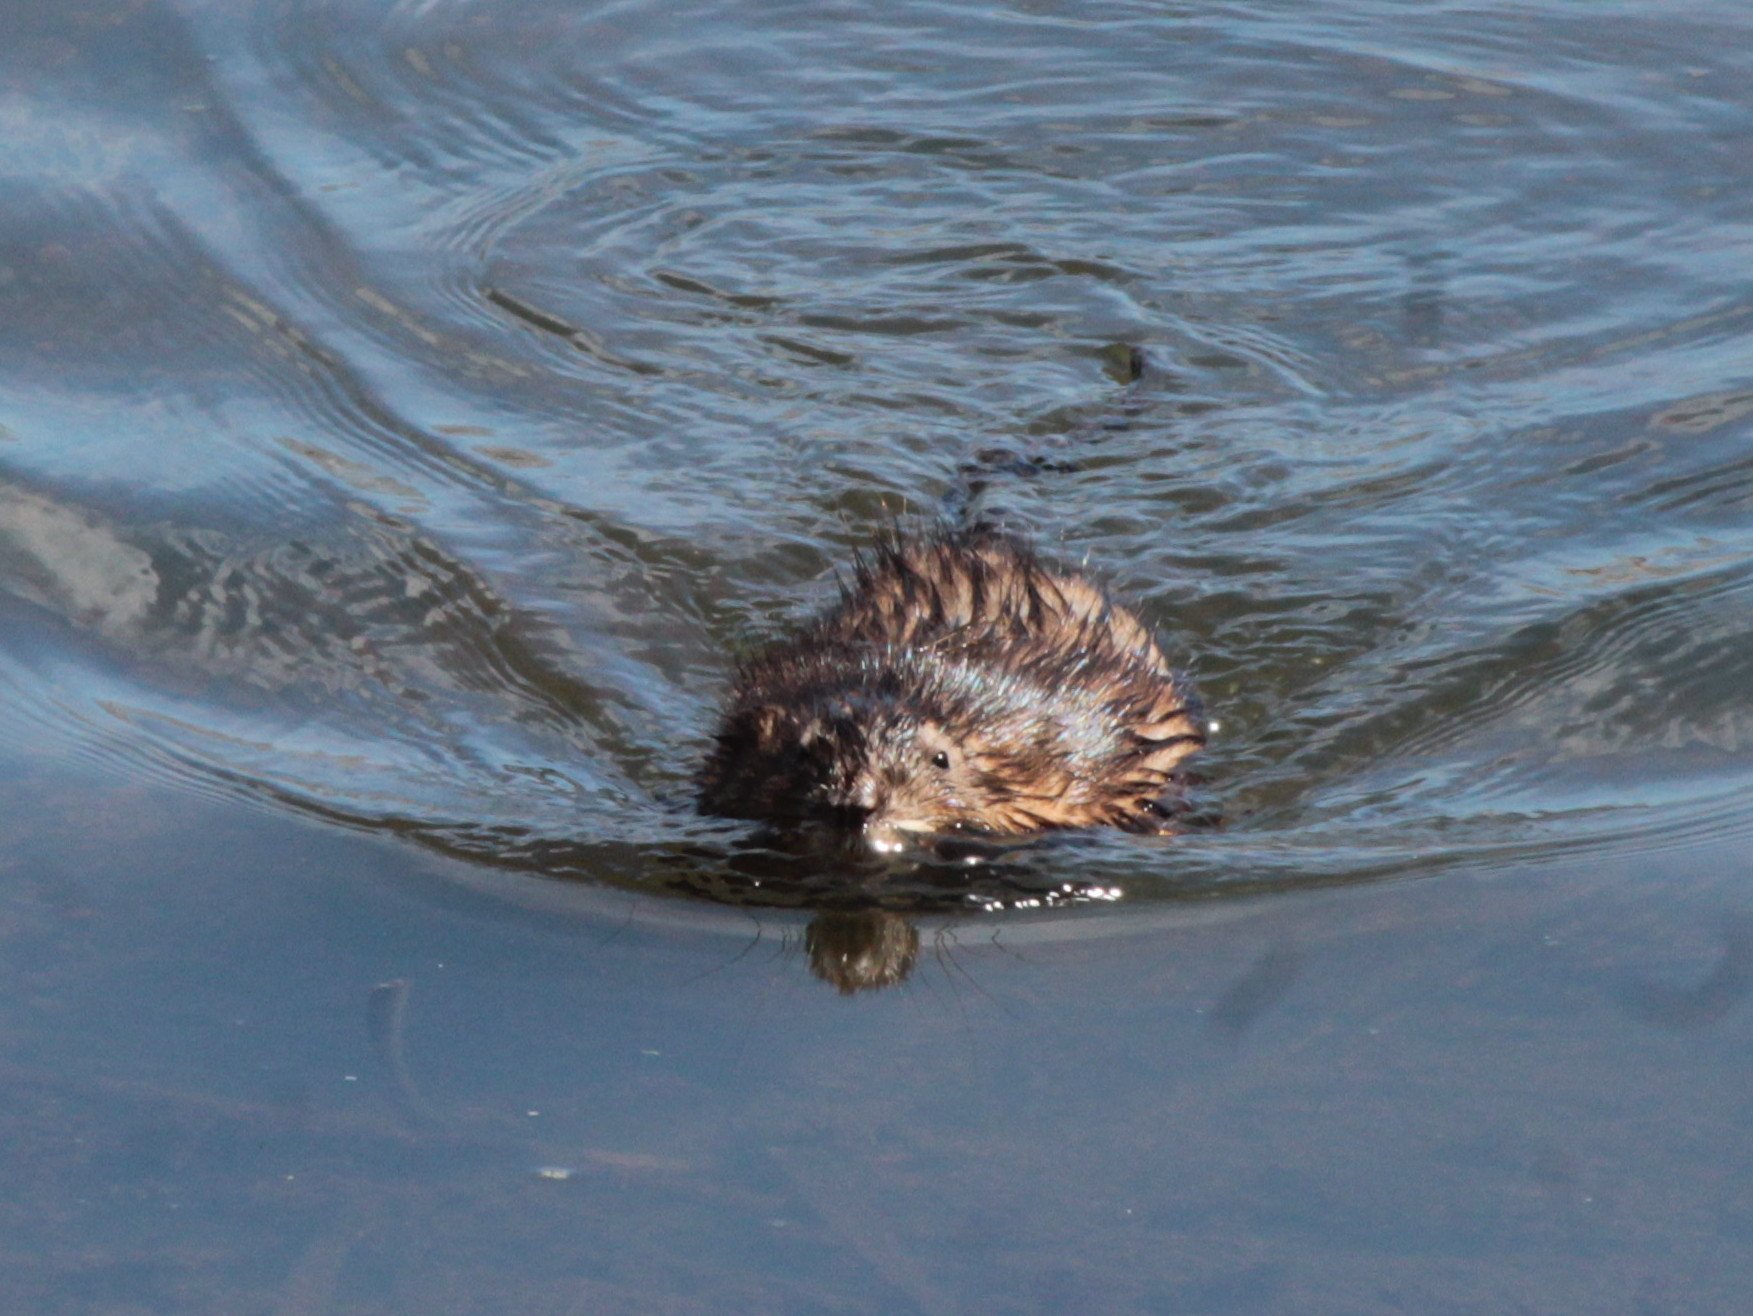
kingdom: Animalia
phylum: Chordata
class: Mammalia
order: Rodentia
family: Cricetidae
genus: Ondatra
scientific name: Ondatra zibethicus
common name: Muskrat
